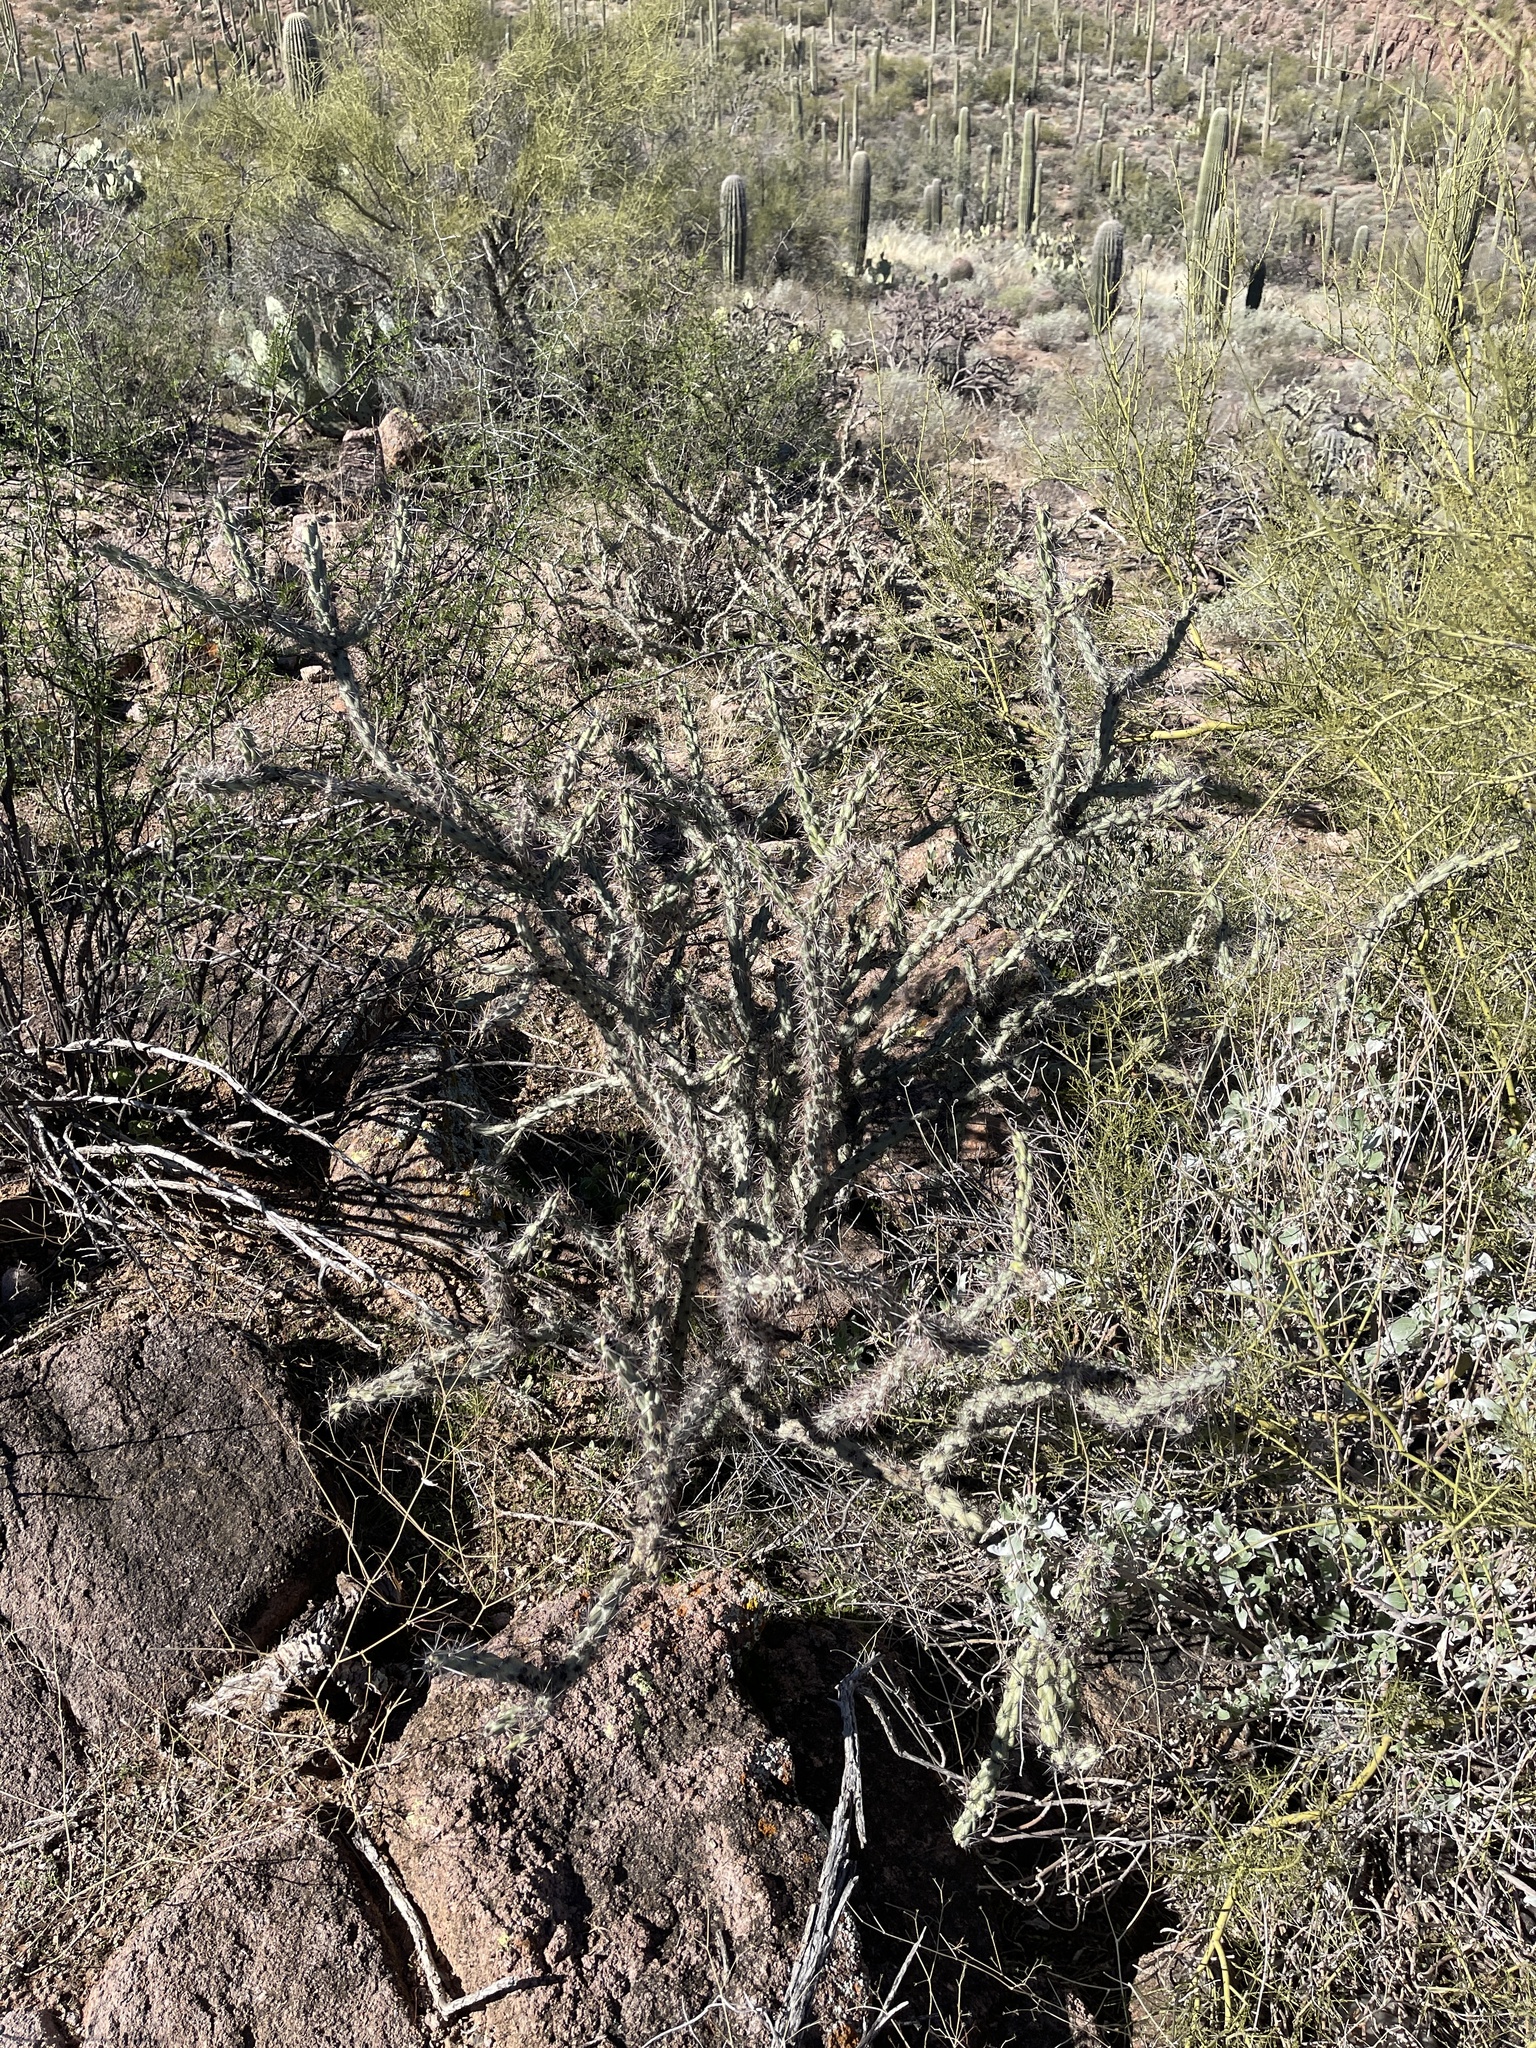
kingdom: Plantae
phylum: Tracheophyta
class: Magnoliopsida
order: Caryophyllales
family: Cactaceae
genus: Cylindropuntia
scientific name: Cylindropuntia thurberi
